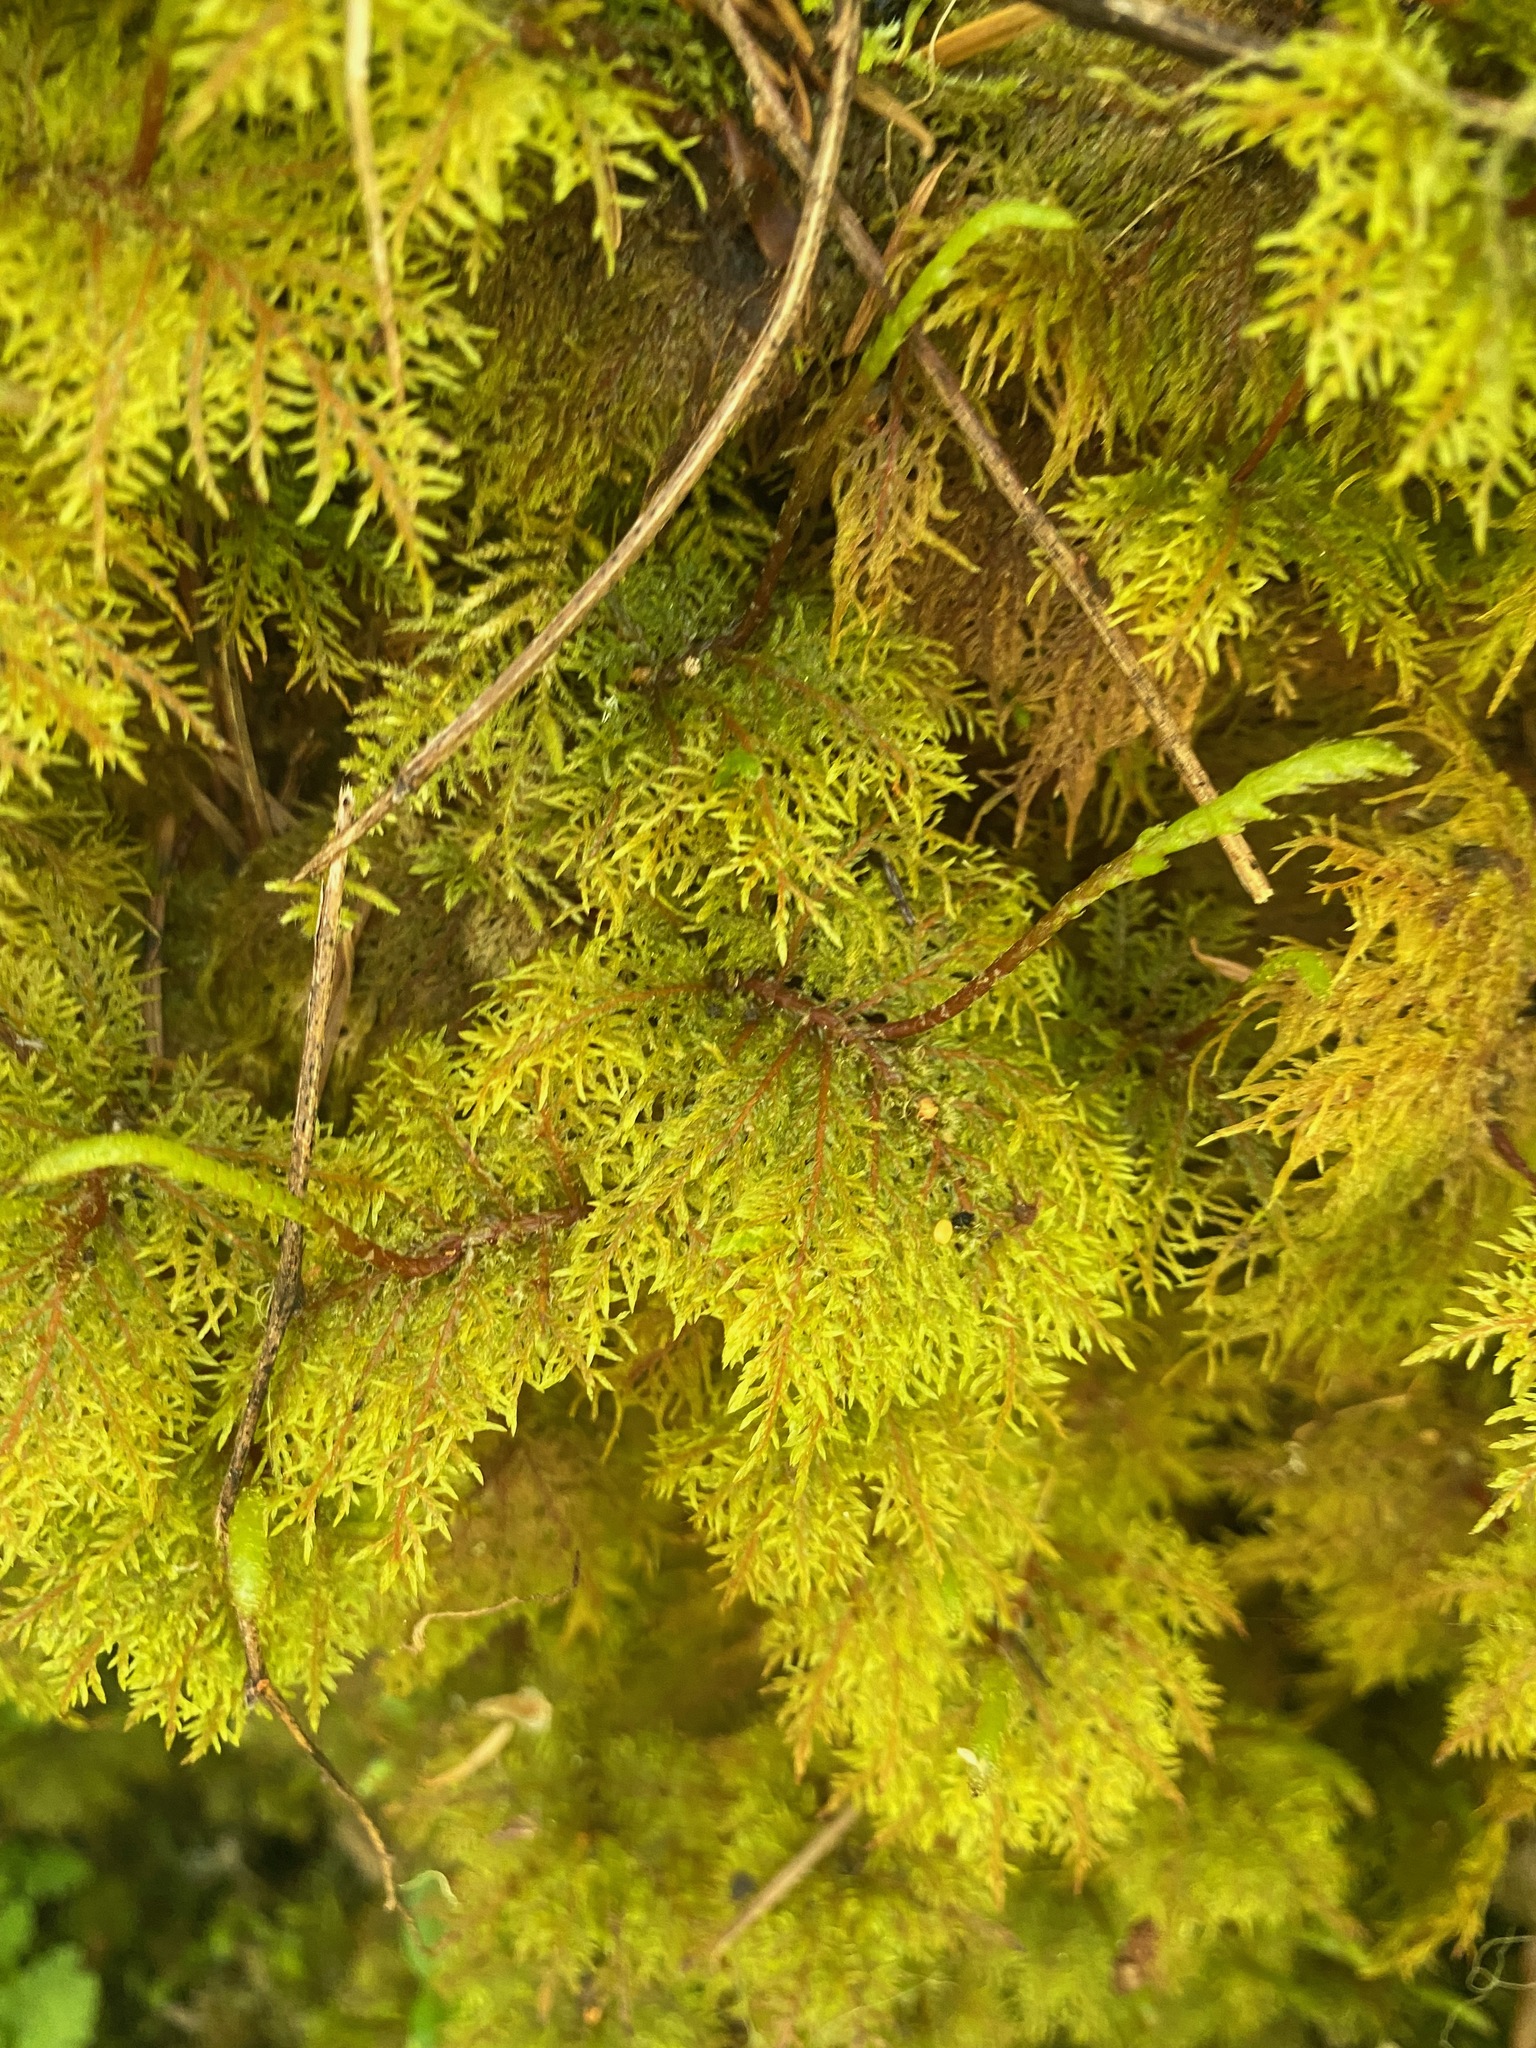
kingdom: Plantae
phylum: Bryophyta
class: Bryopsida
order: Hypnales
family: Hylocomiaceae
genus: Hylocomium
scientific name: Hylocomium splendens
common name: Stairstep moss
